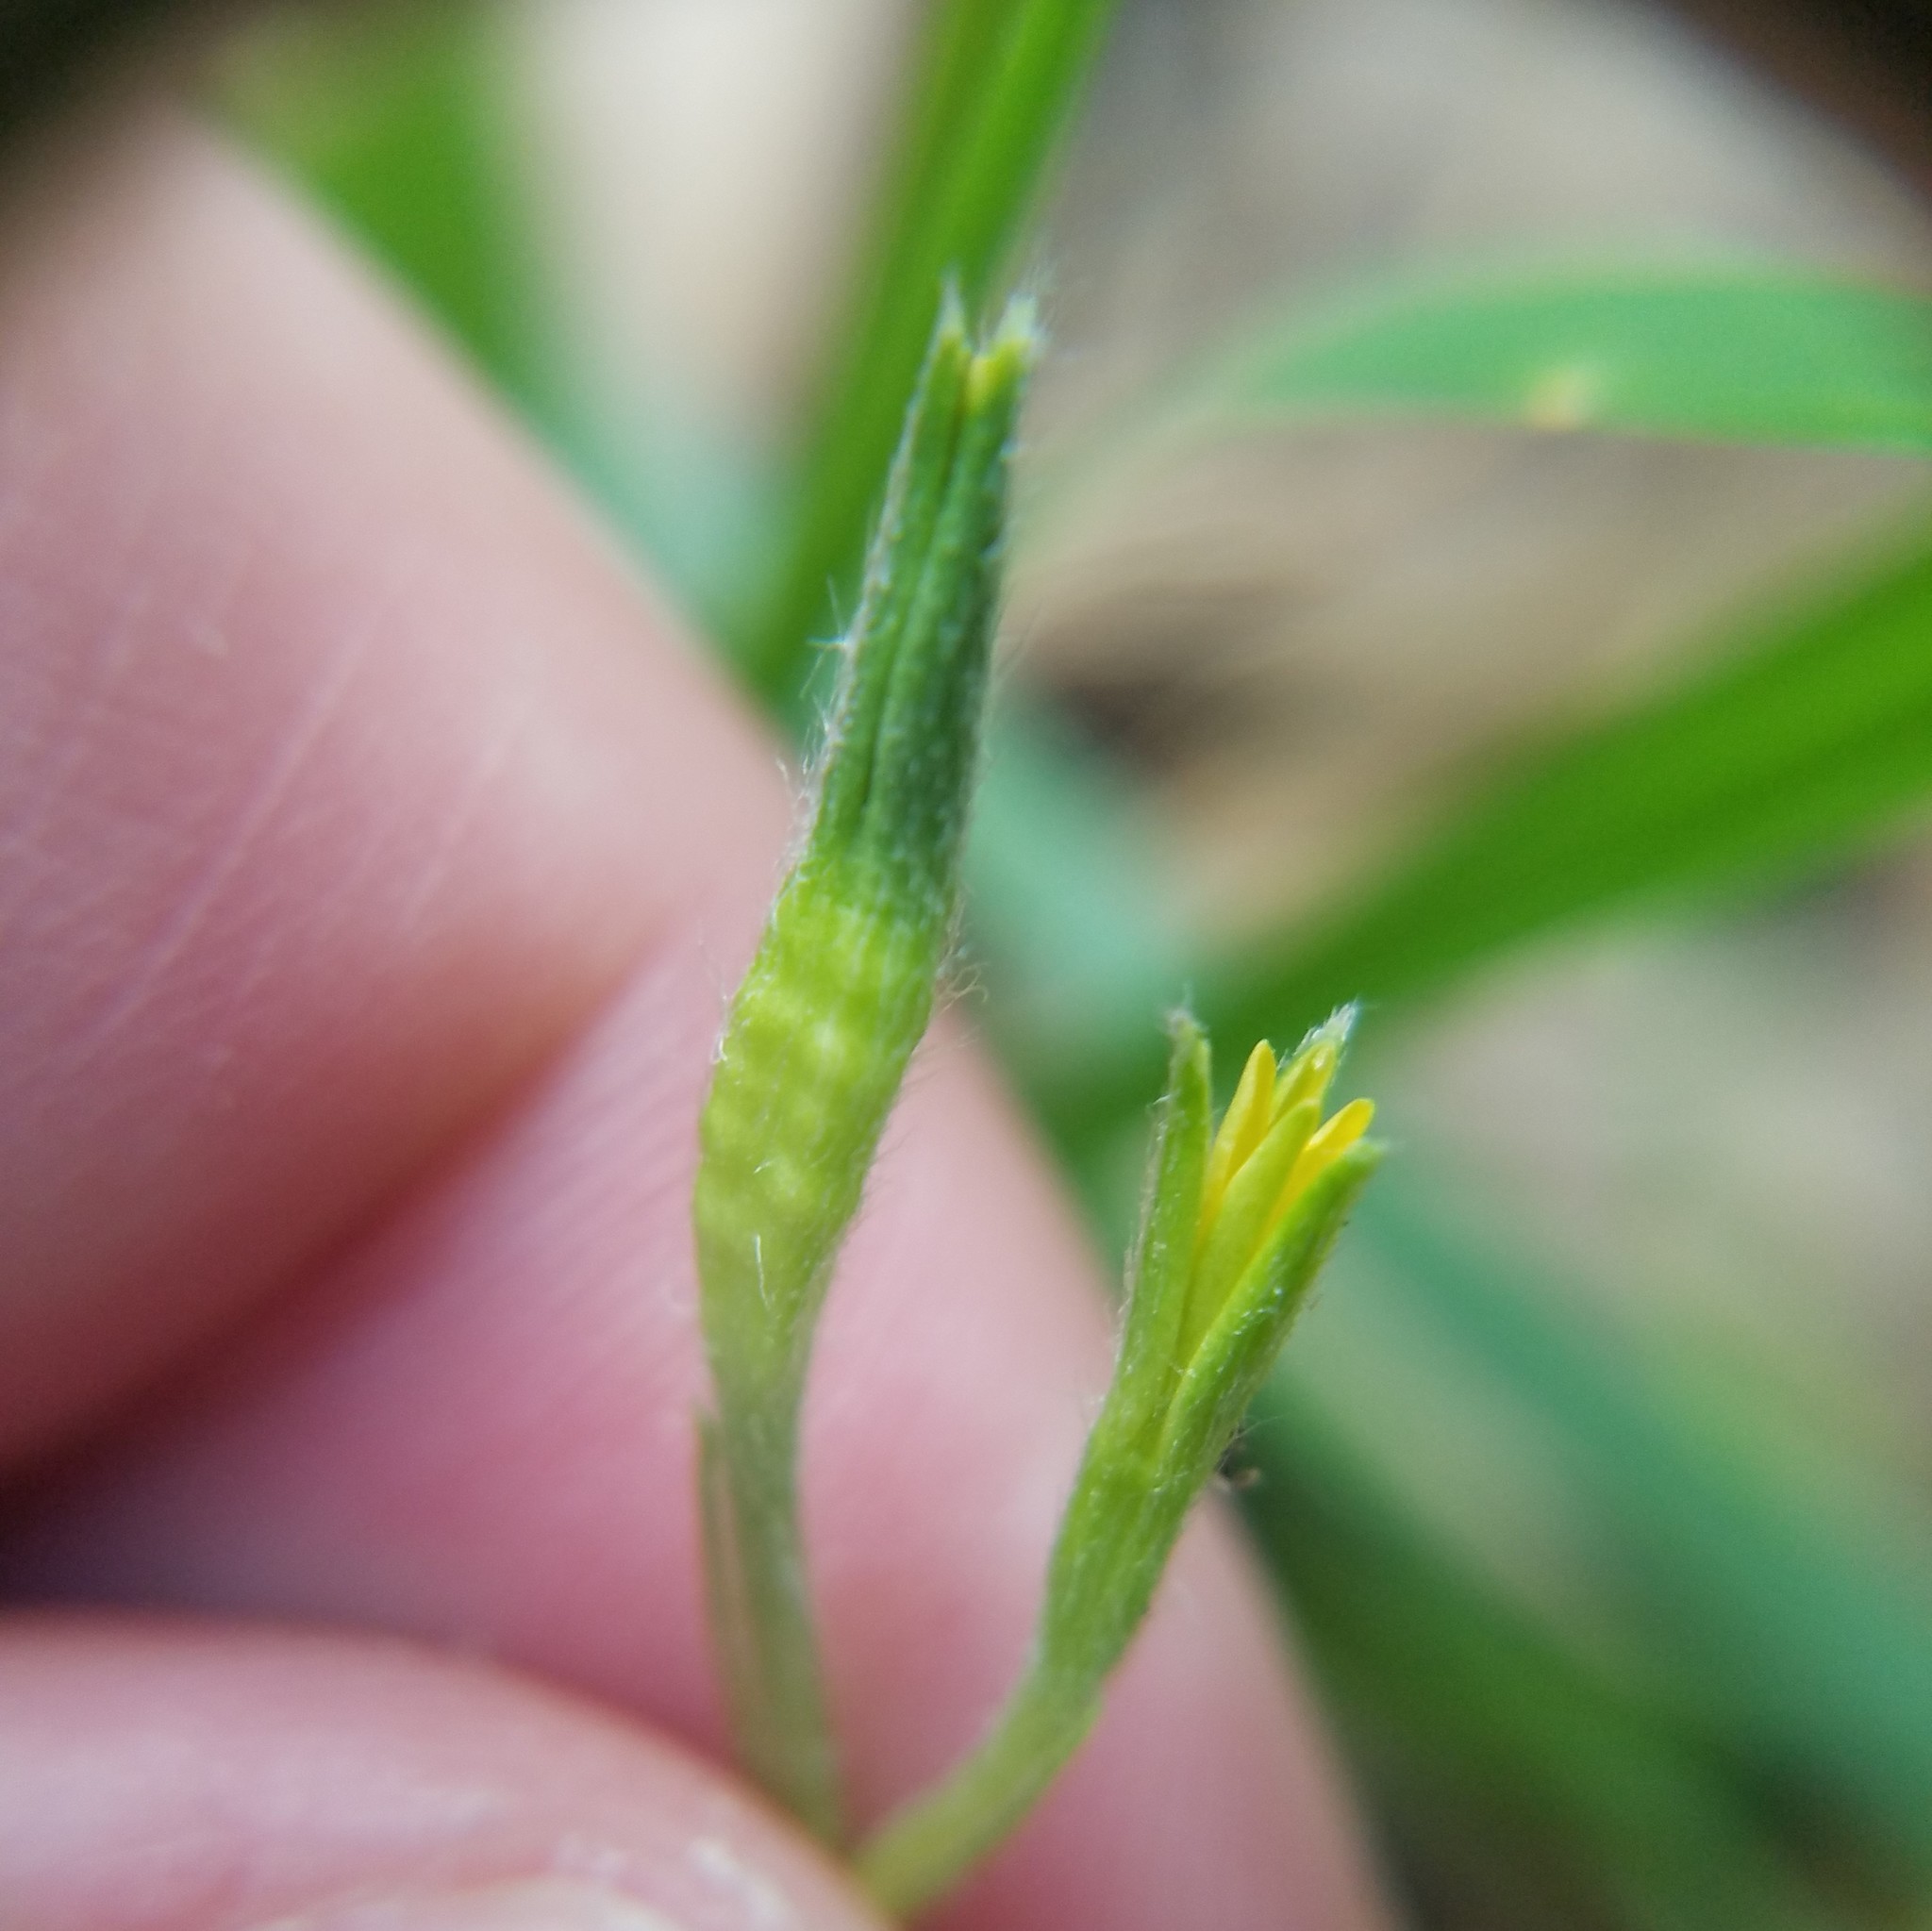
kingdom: Plantae
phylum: Tracheophyta
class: Liliopsida
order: Asparagales
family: Hypoxidaceae
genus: Hypoxis
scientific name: Hypoxis curtissii
